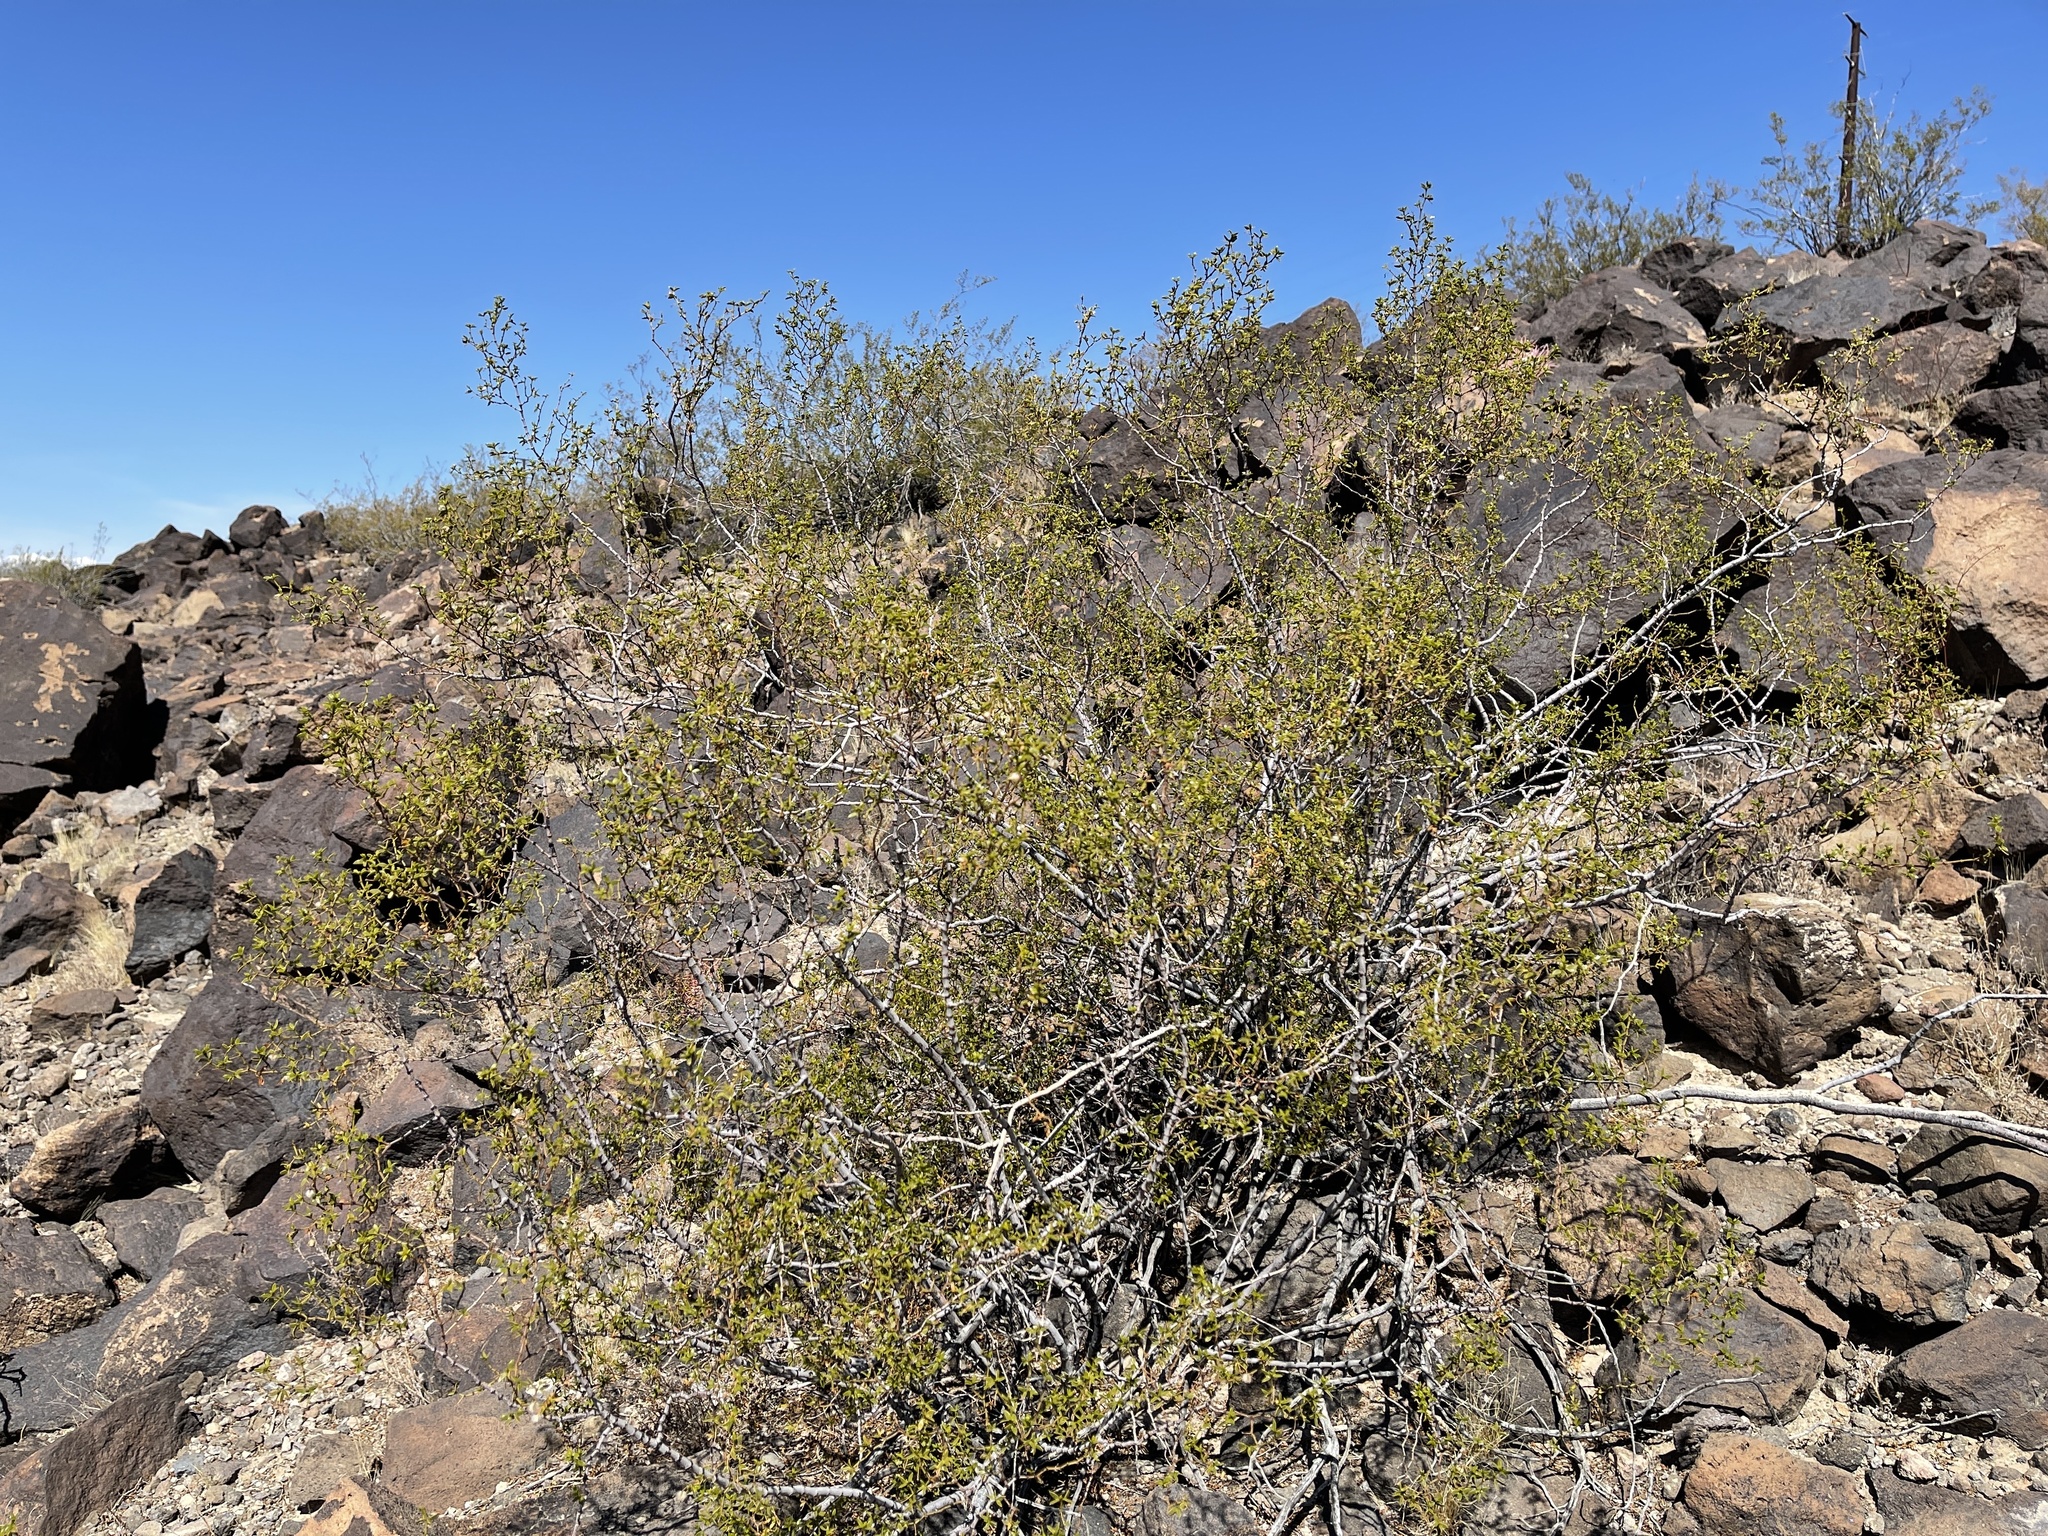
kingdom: Plantae
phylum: Tracheophyta
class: Magnoliopsida
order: Zygophyllales
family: Zygophyllaceae
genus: Larrea
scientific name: Larrea tridentata
